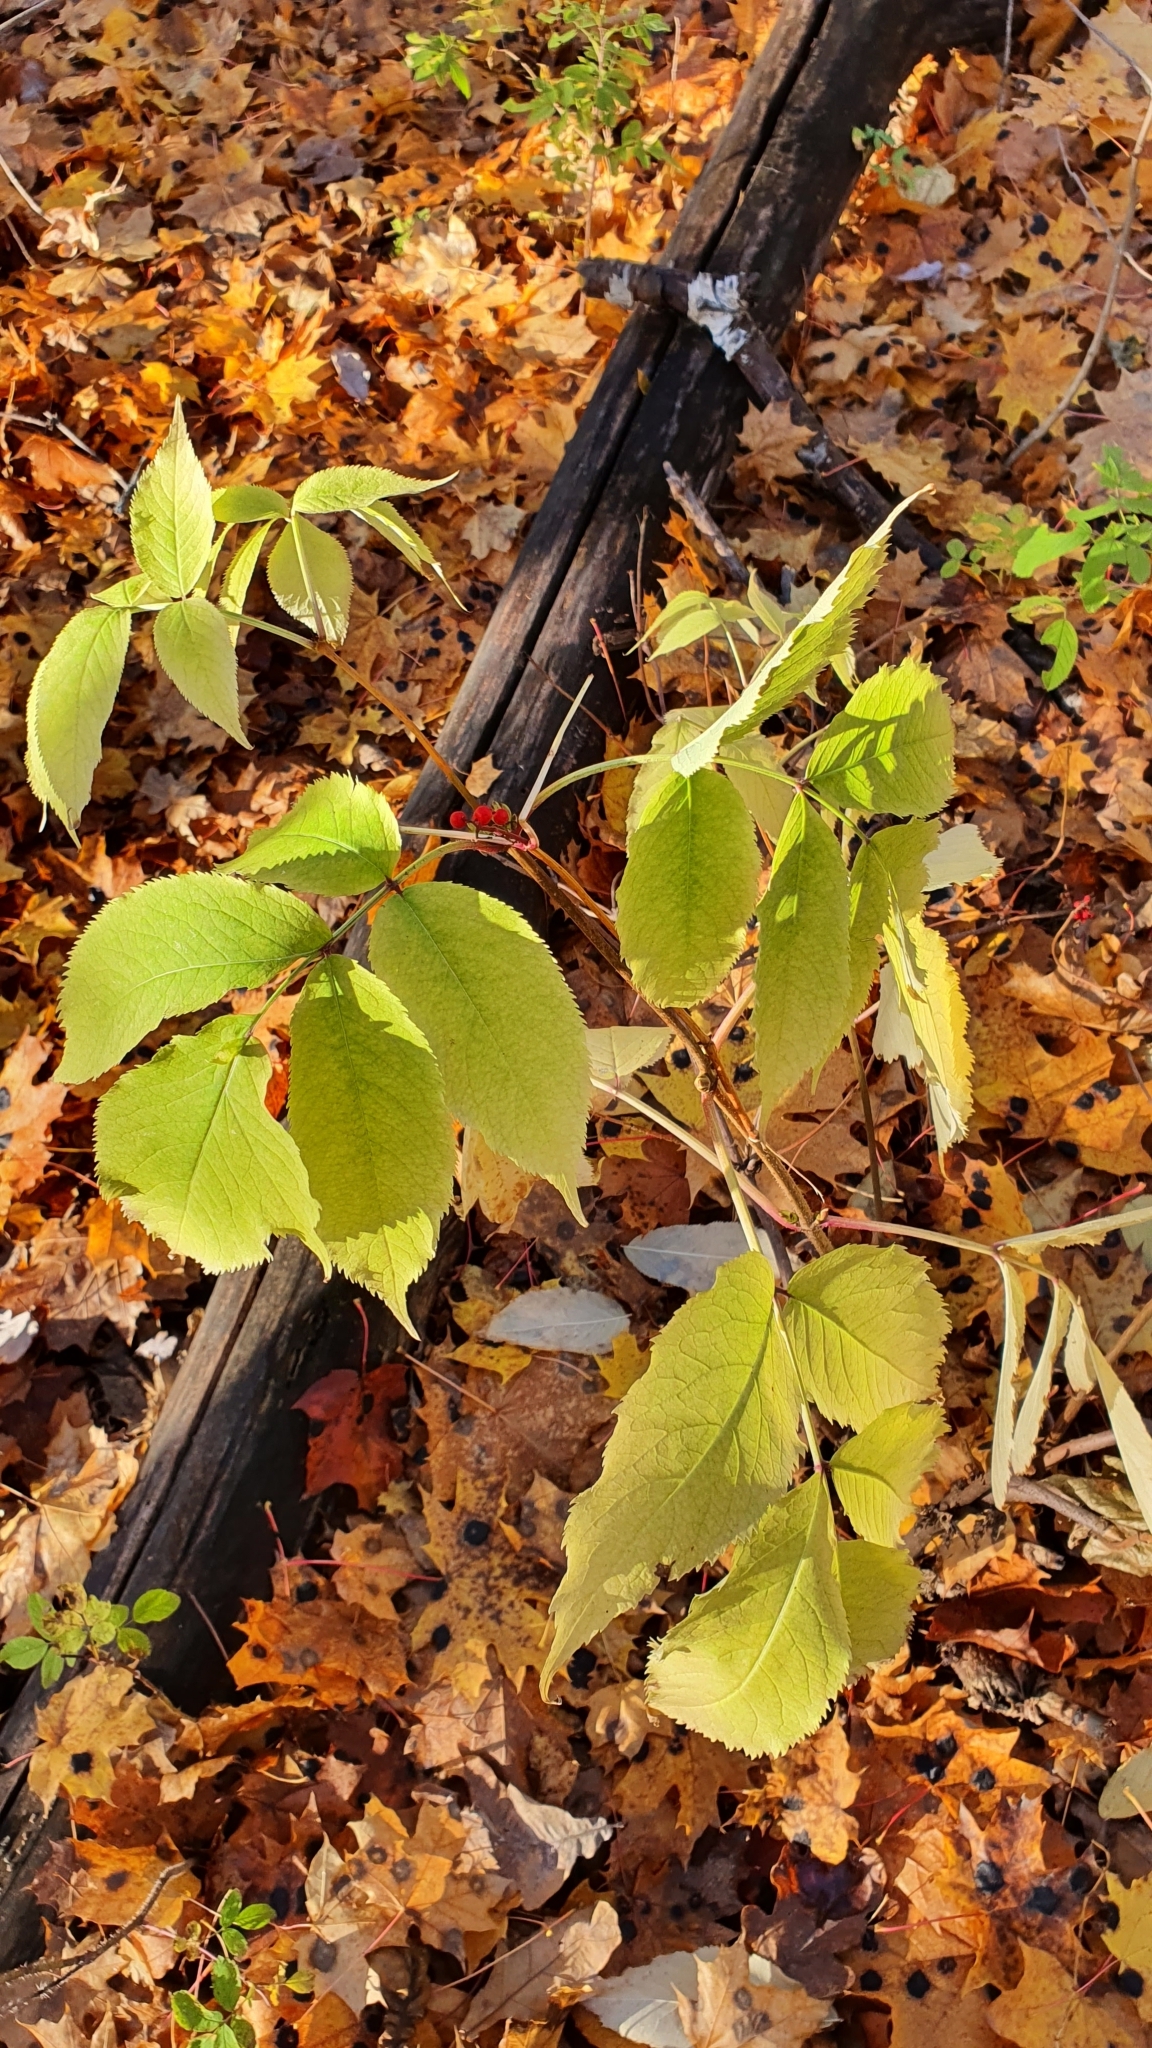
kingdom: Plantae
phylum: Tracheophyta
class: Magnoliopsida
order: Dipsacales
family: Viburnaceae
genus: Sambucus
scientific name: Sambucus racemosa
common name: Red-berried elder
